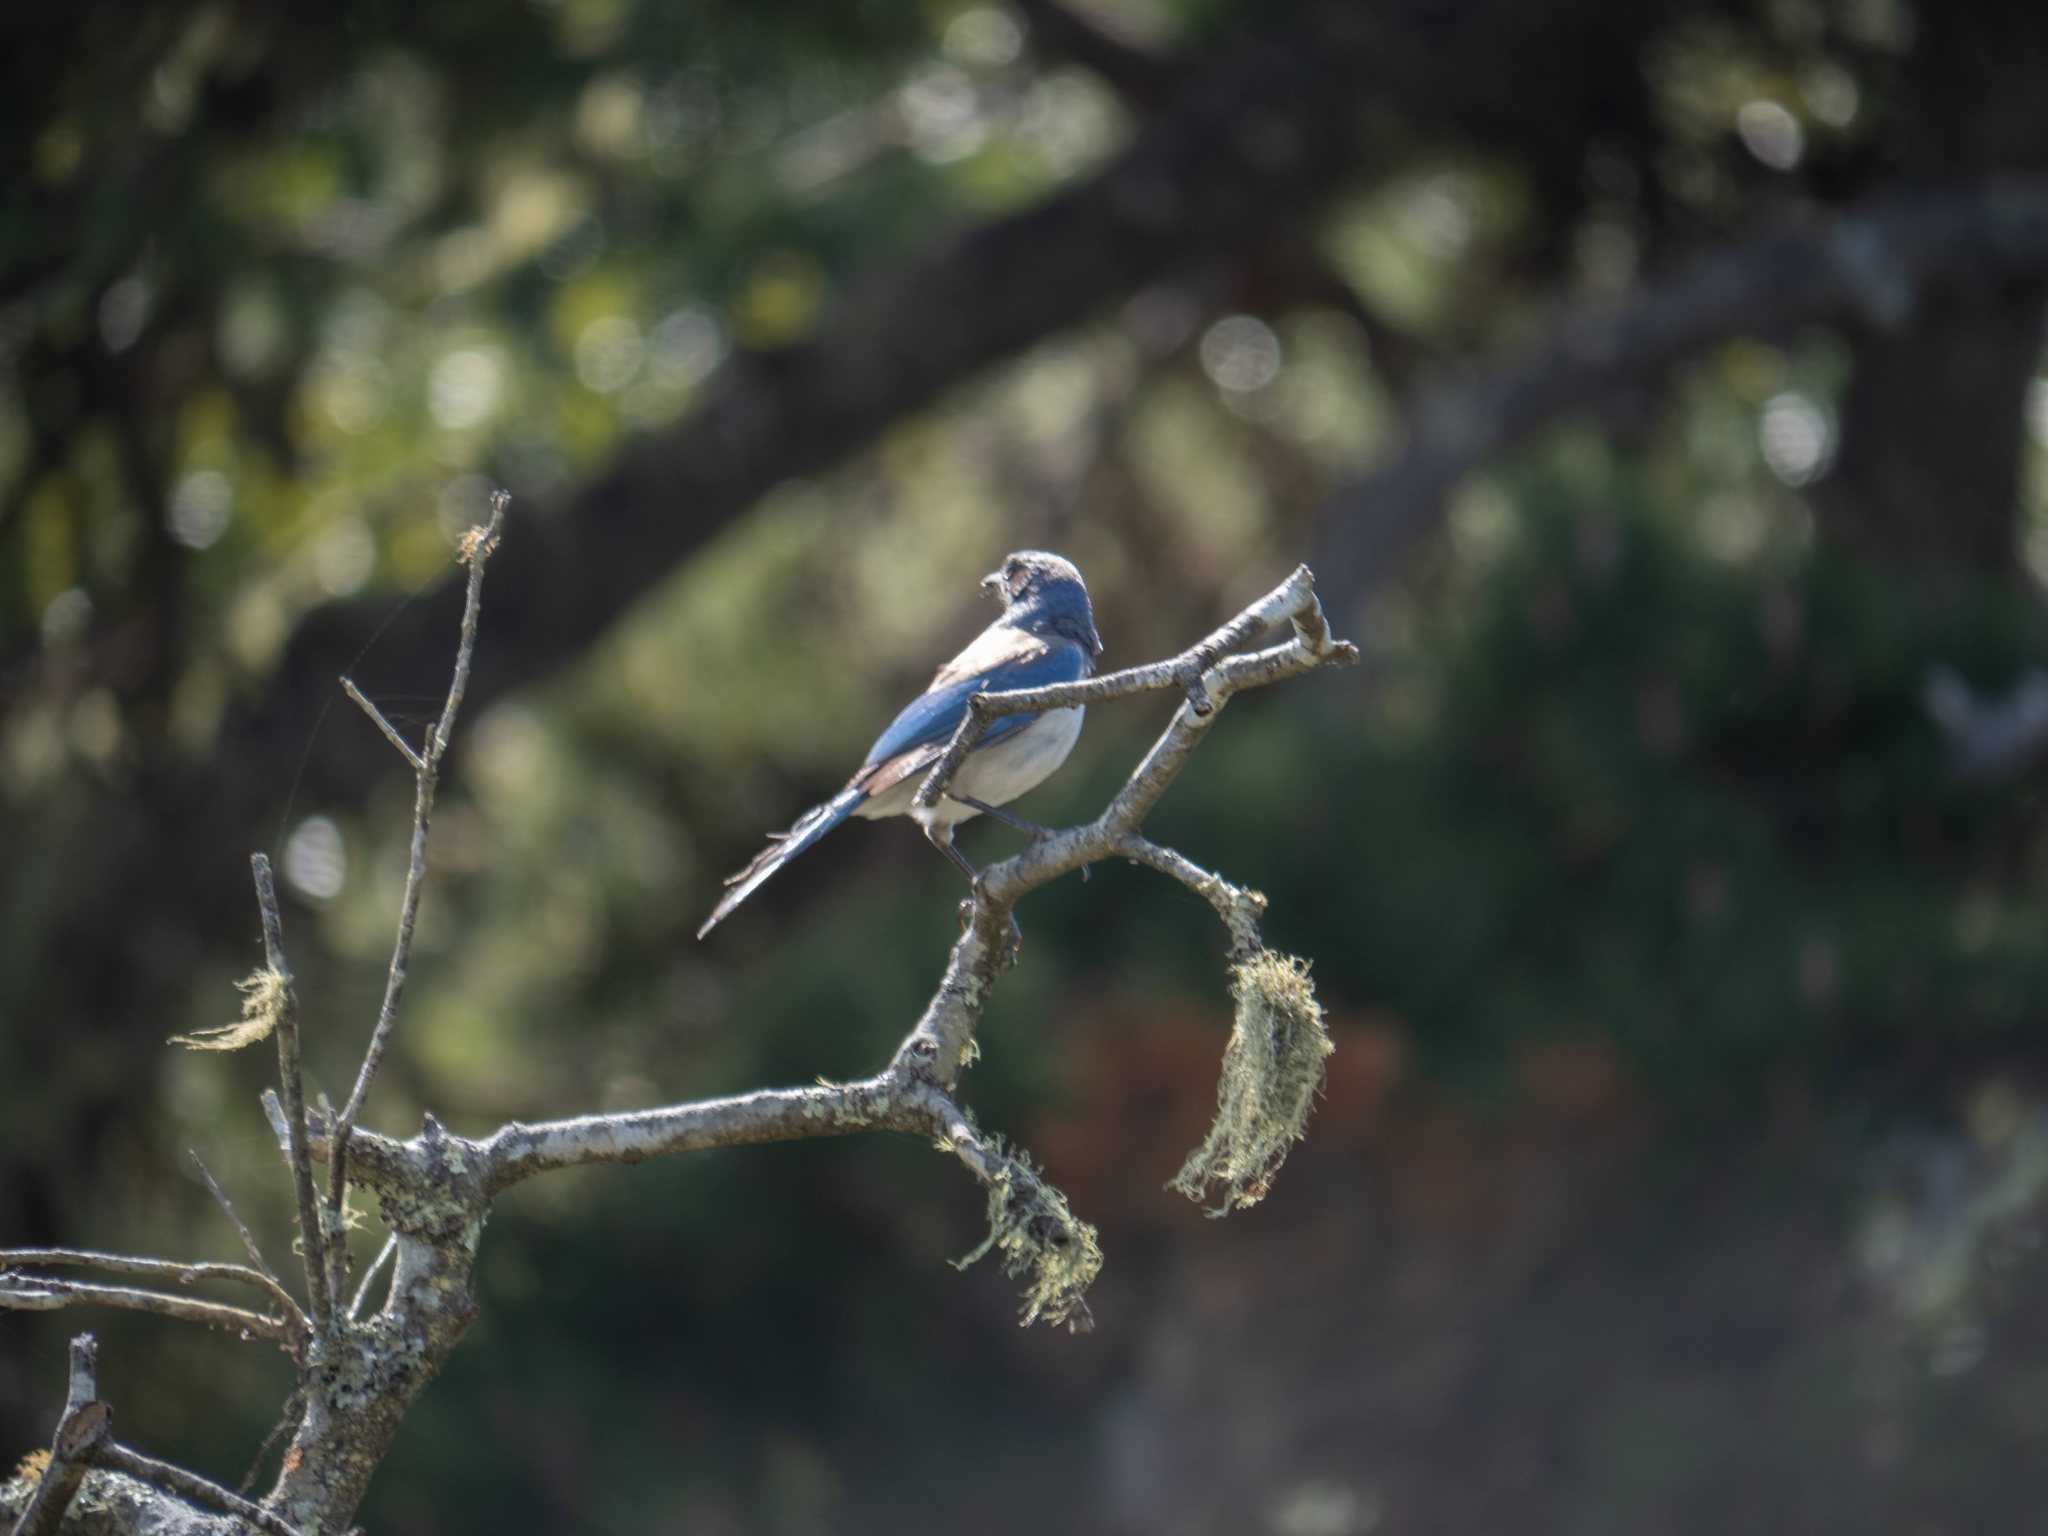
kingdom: Animalia
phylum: Chordata
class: Aves
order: Passeriformes
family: Corvidae
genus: Aphelocoma
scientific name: Aphelocoma californica
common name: California scrub-jay
